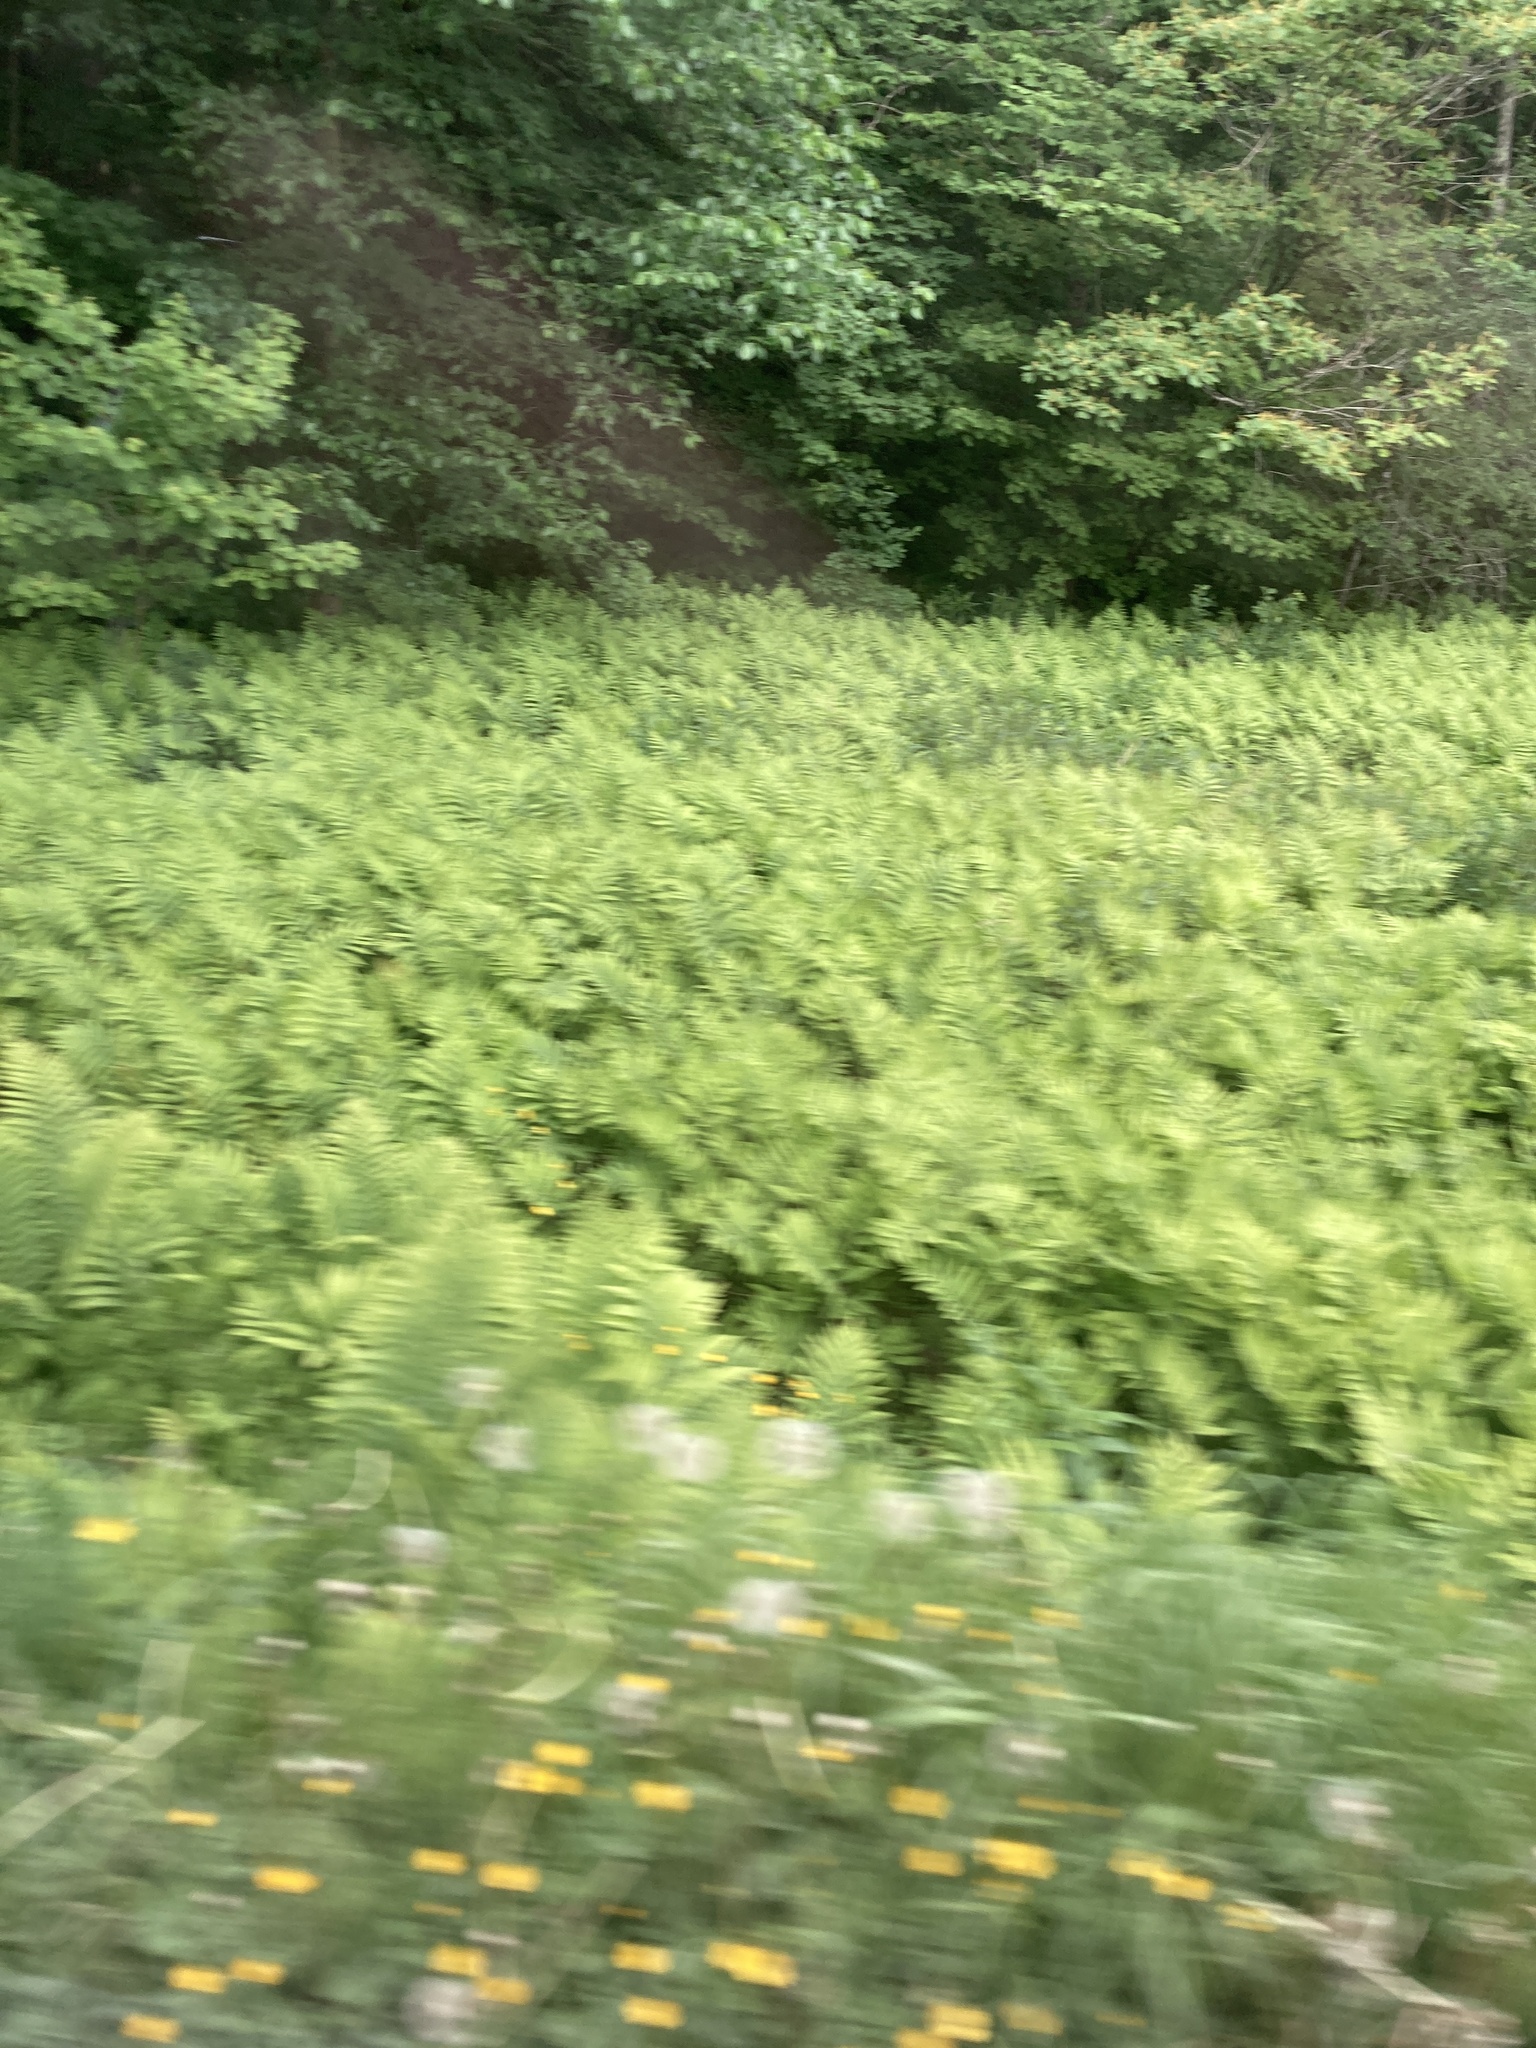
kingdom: Plantae
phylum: Tracheophyta
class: Polypodiopsida
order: Polypodiales
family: Onocleaceae
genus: Onoclea
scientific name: Onoclea sensibilis
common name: Sensitive fern
